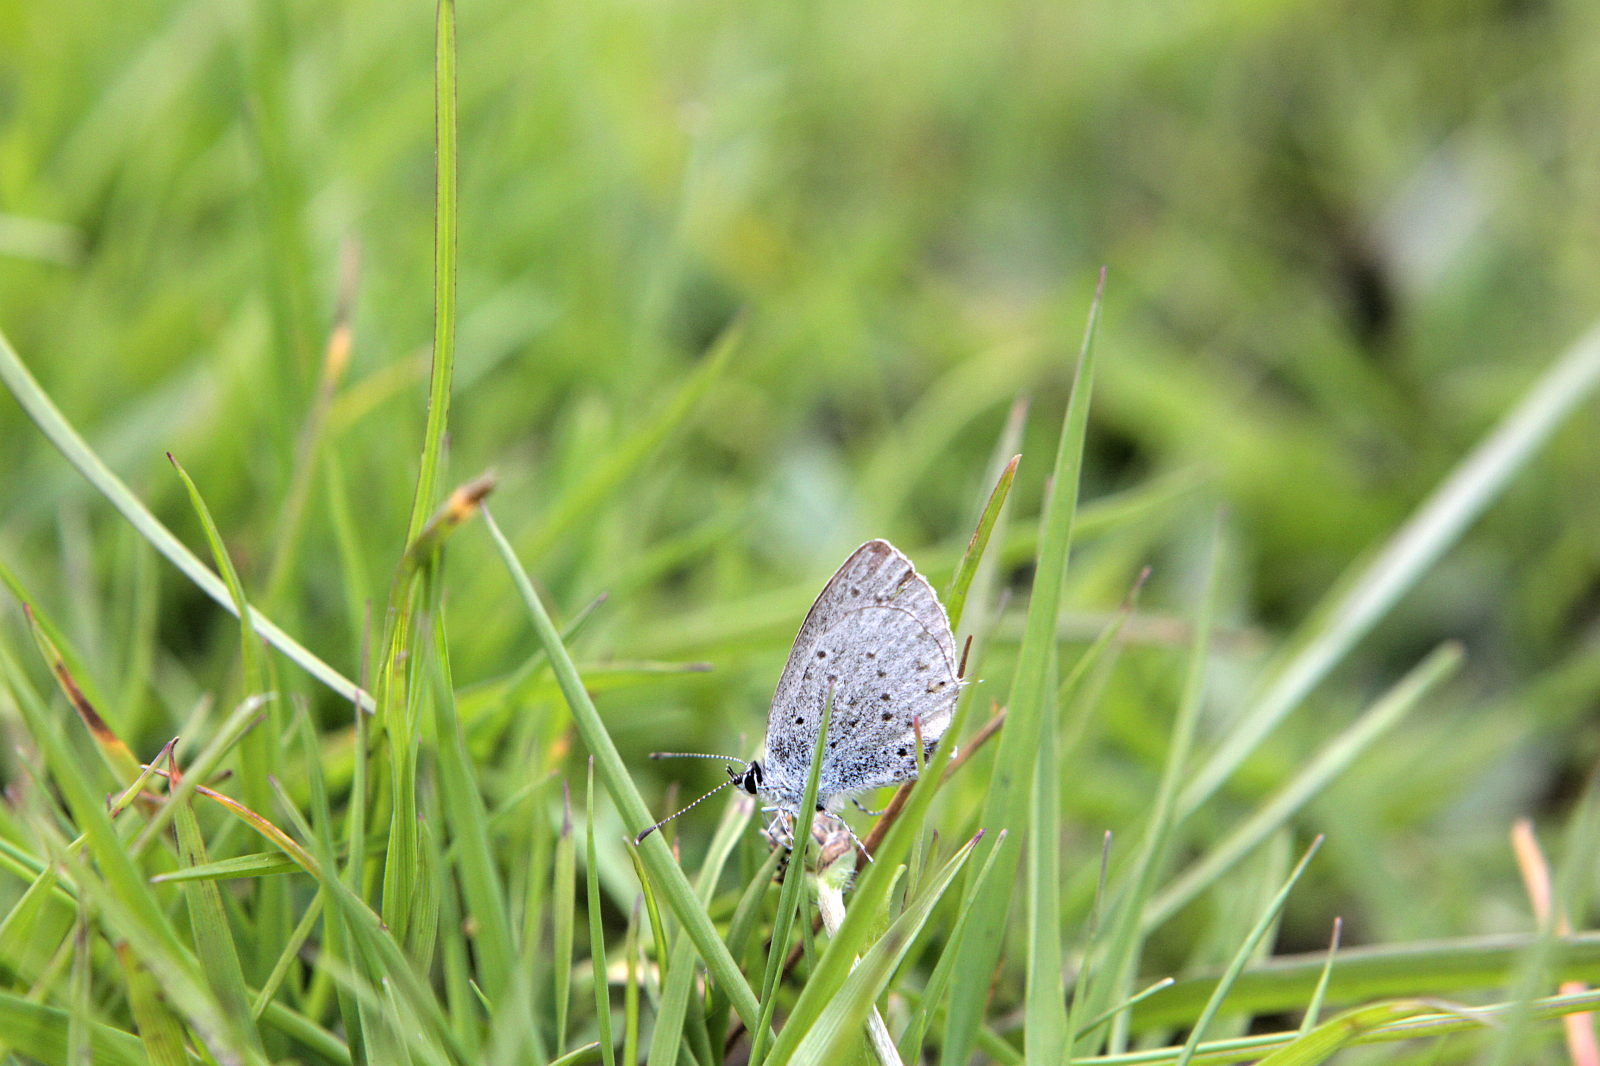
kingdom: Animalia
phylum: Arthropoda
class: Insecta
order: Lepidoptera
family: Lycaenidae
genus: Elkalyce
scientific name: Elkalyce argiades
